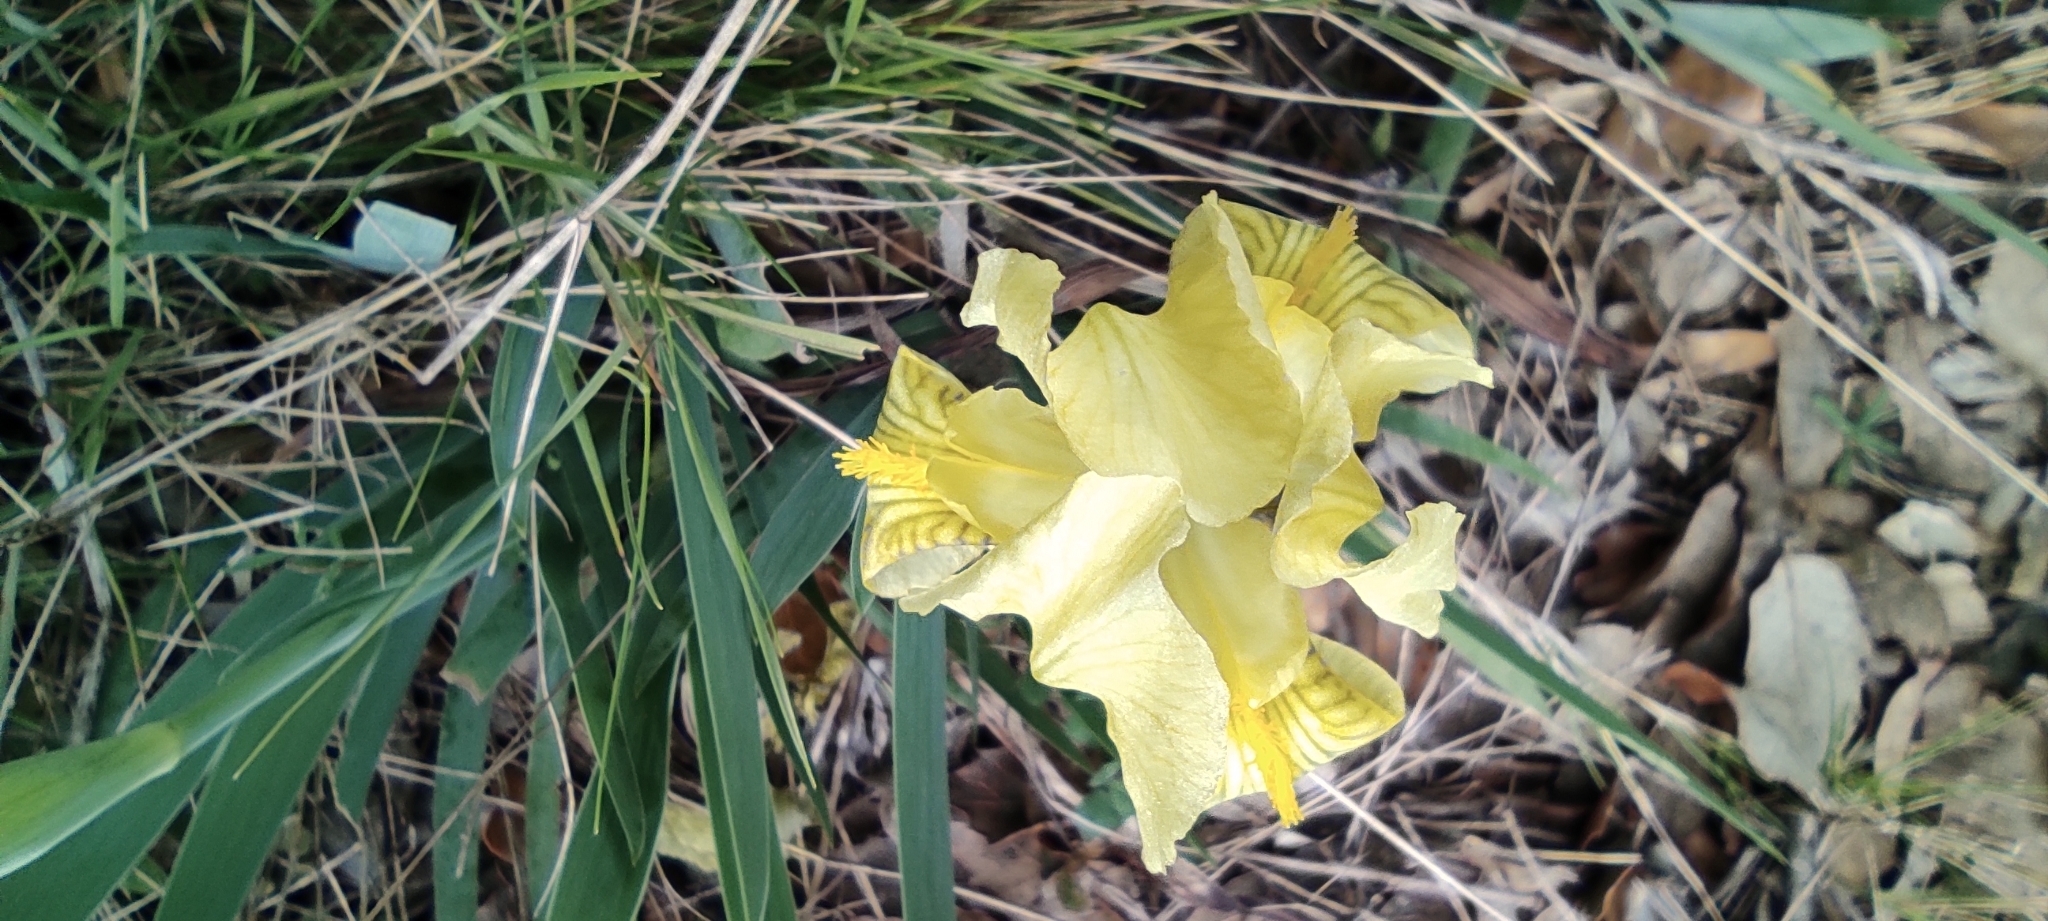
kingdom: Plantae
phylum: Tracheophyta
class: Liliopsida
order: Asparagales
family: Iridaceae
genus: Iris
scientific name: Iris lutescens
